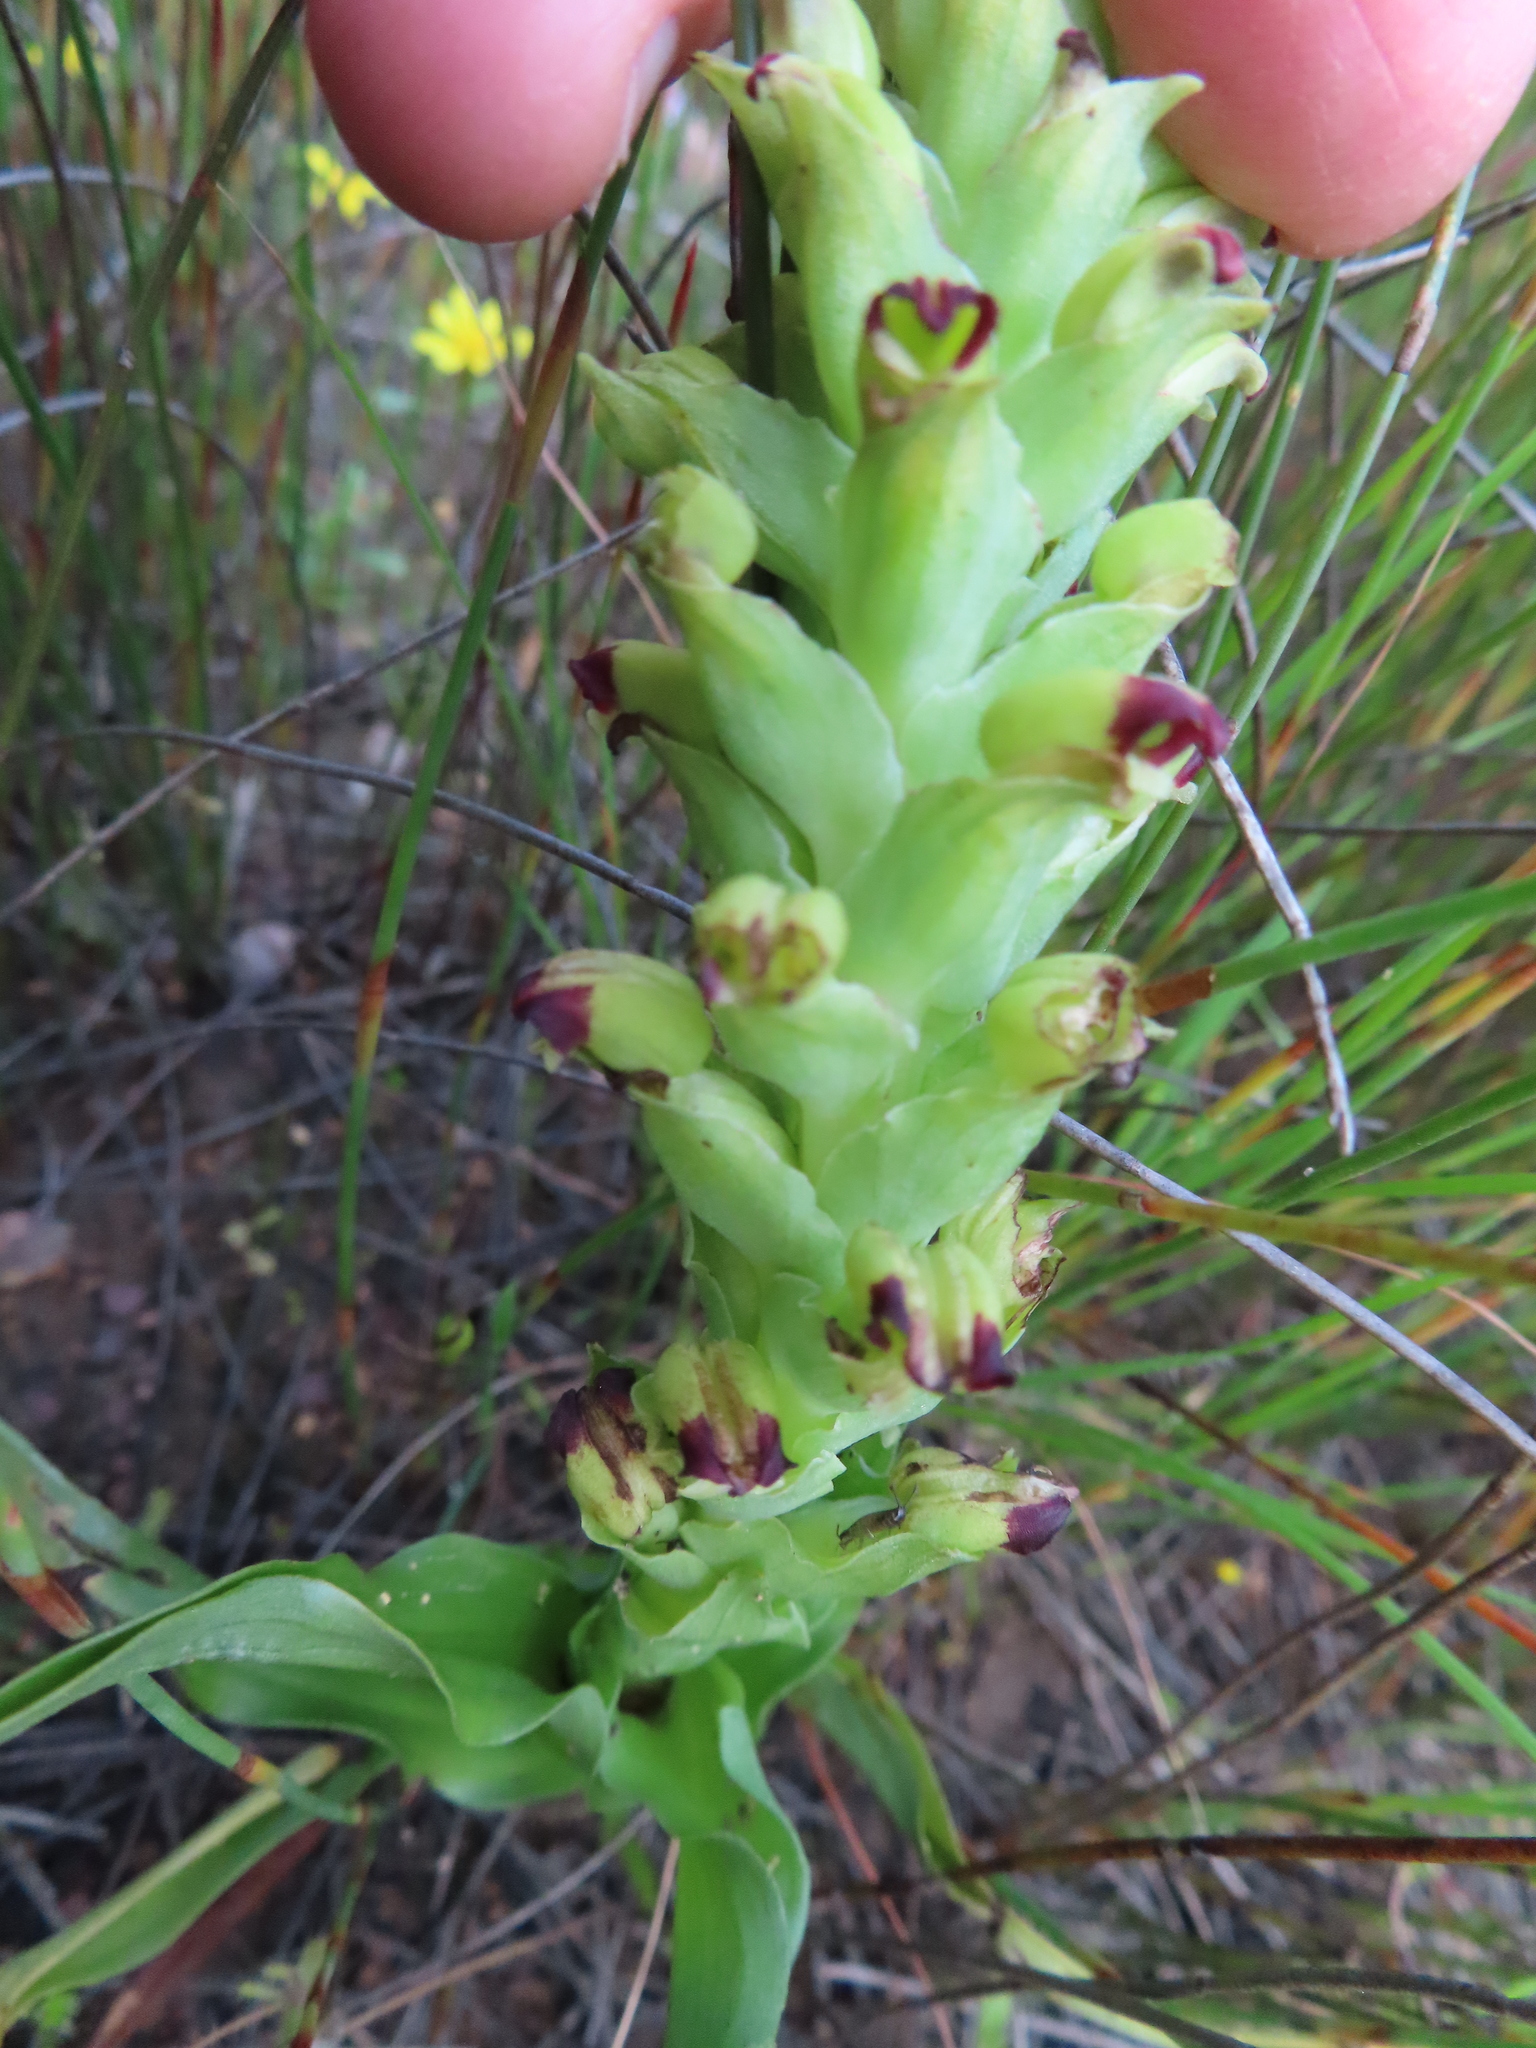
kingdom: Plantae
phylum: Tracheophyta
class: Liliopsida
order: Asparagales
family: Orchidaceae
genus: Corycium
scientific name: Corycium orobanchoides
